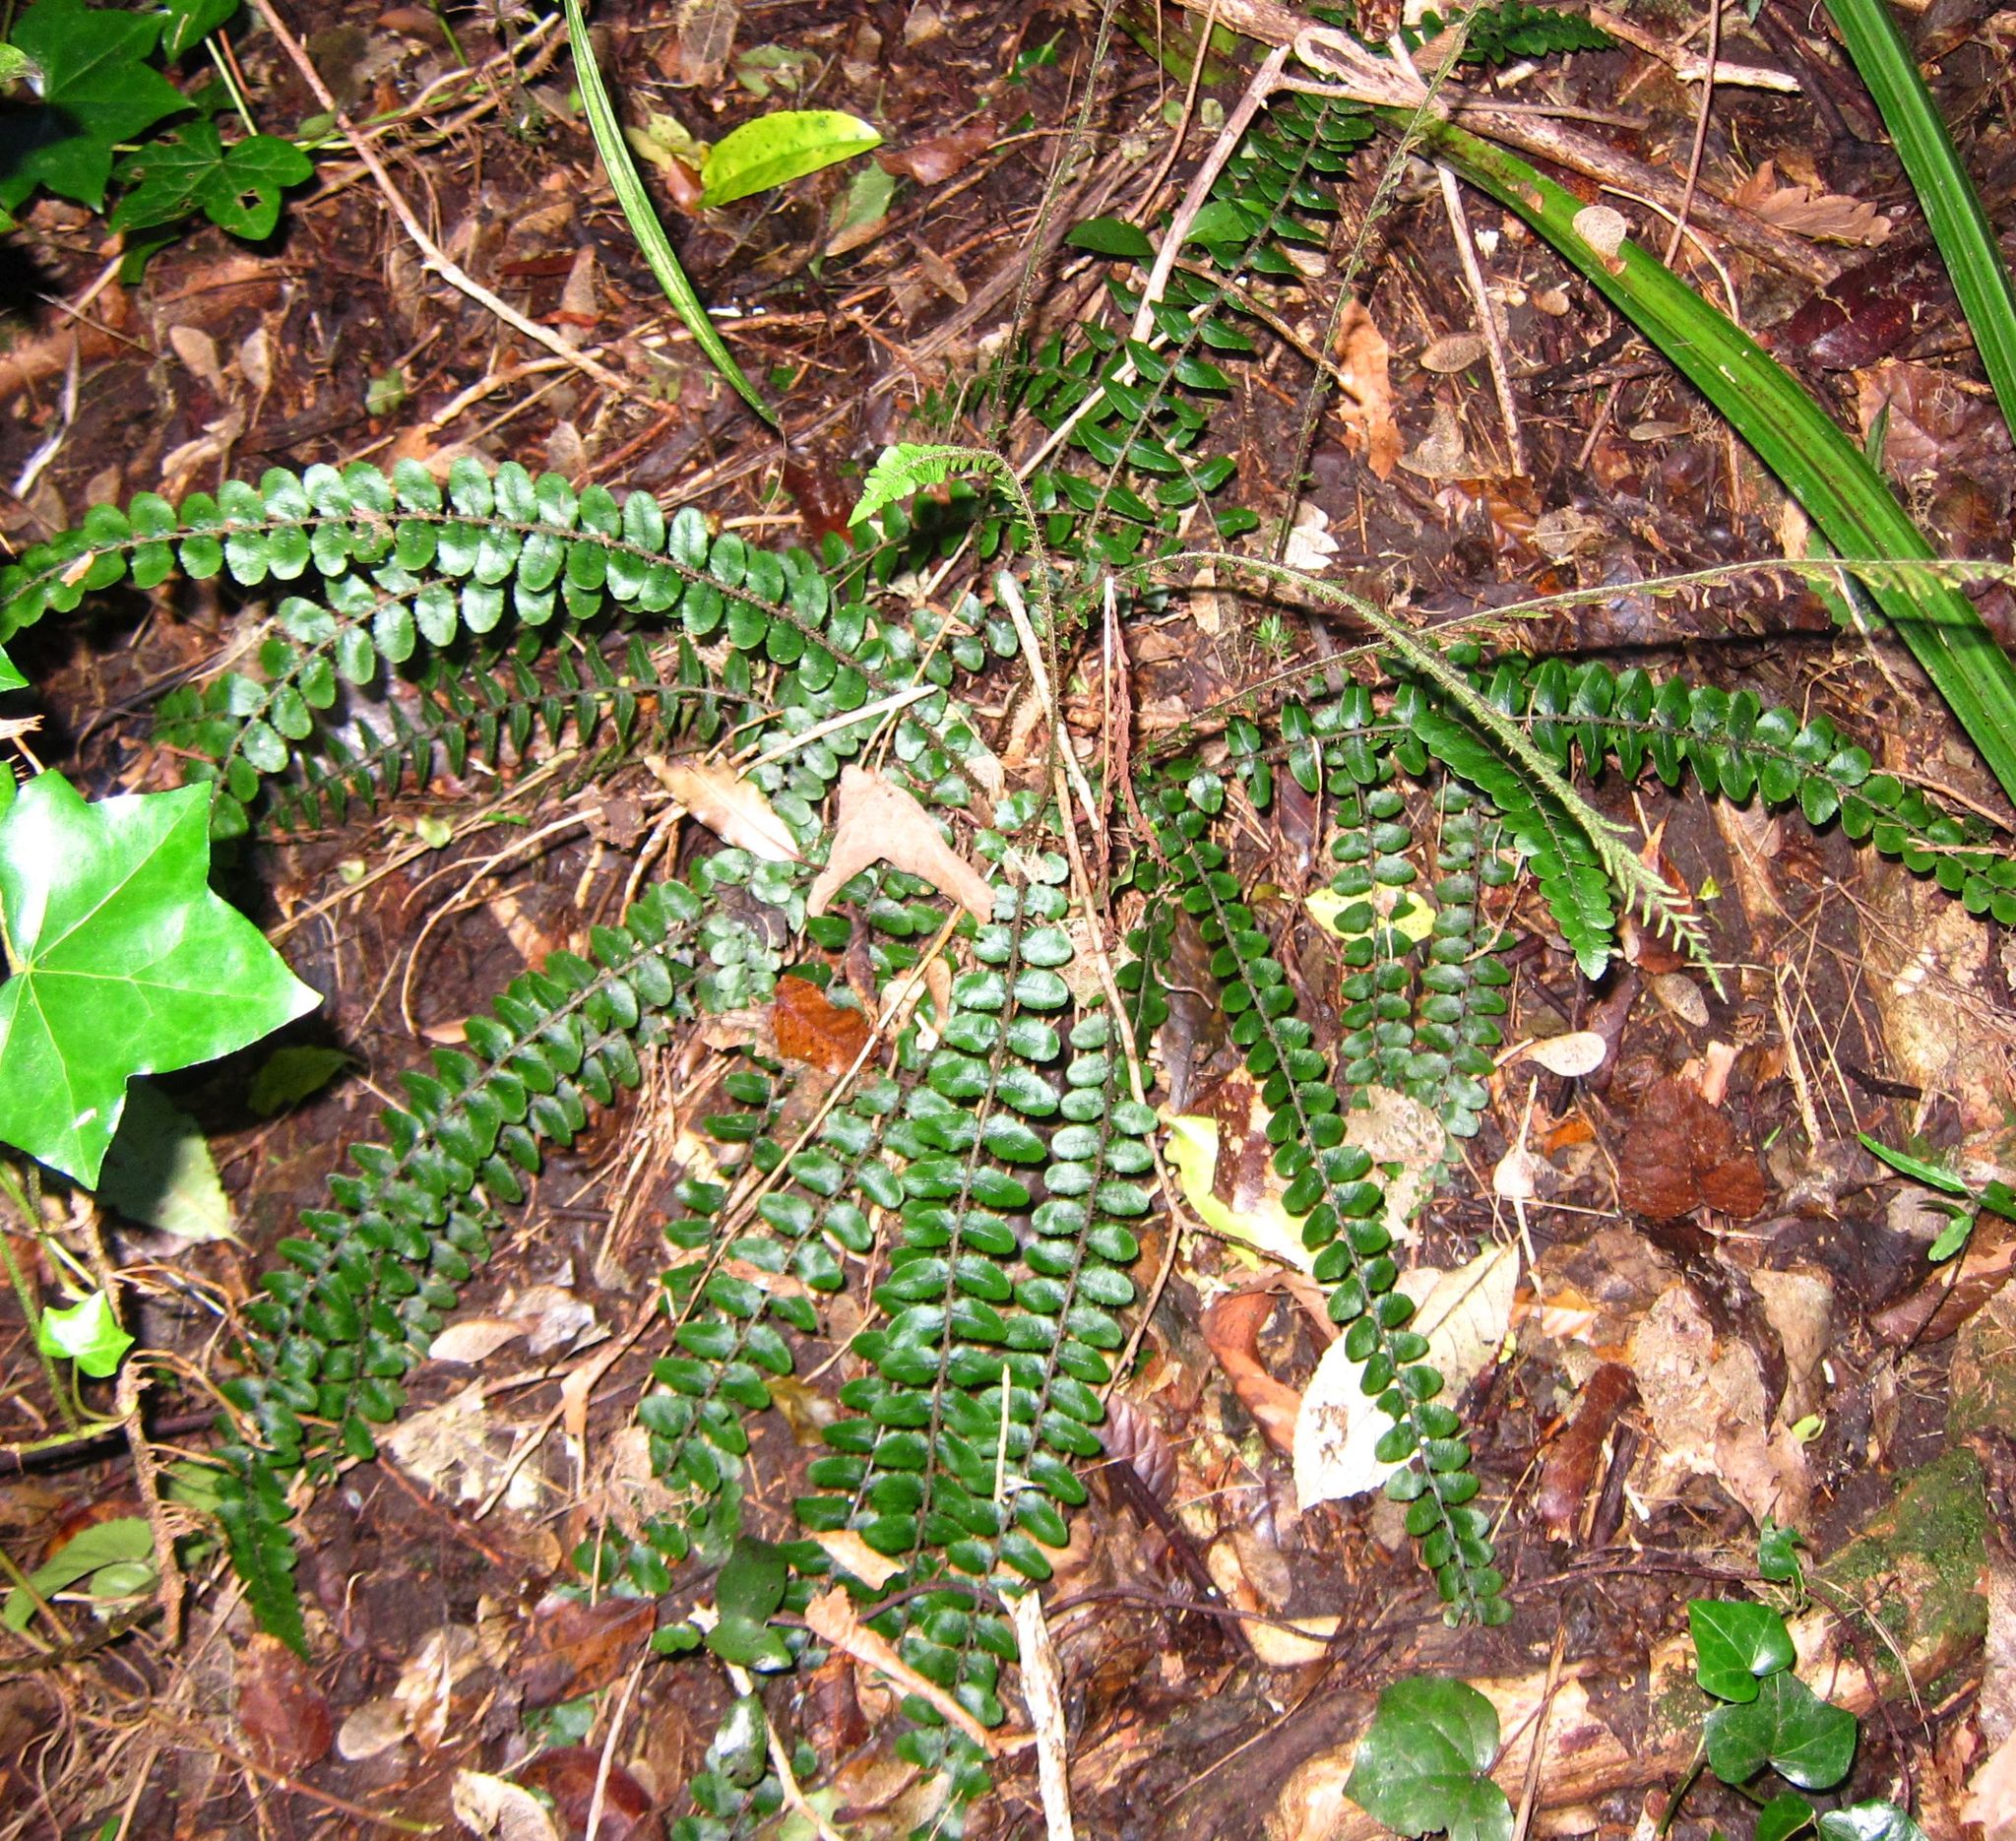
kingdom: Plantae
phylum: Tracheophyta
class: Polypodiopsida
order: Polypodiales
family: Blechnaceae
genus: Cranfillia
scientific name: Cranfillia fluviatilis
